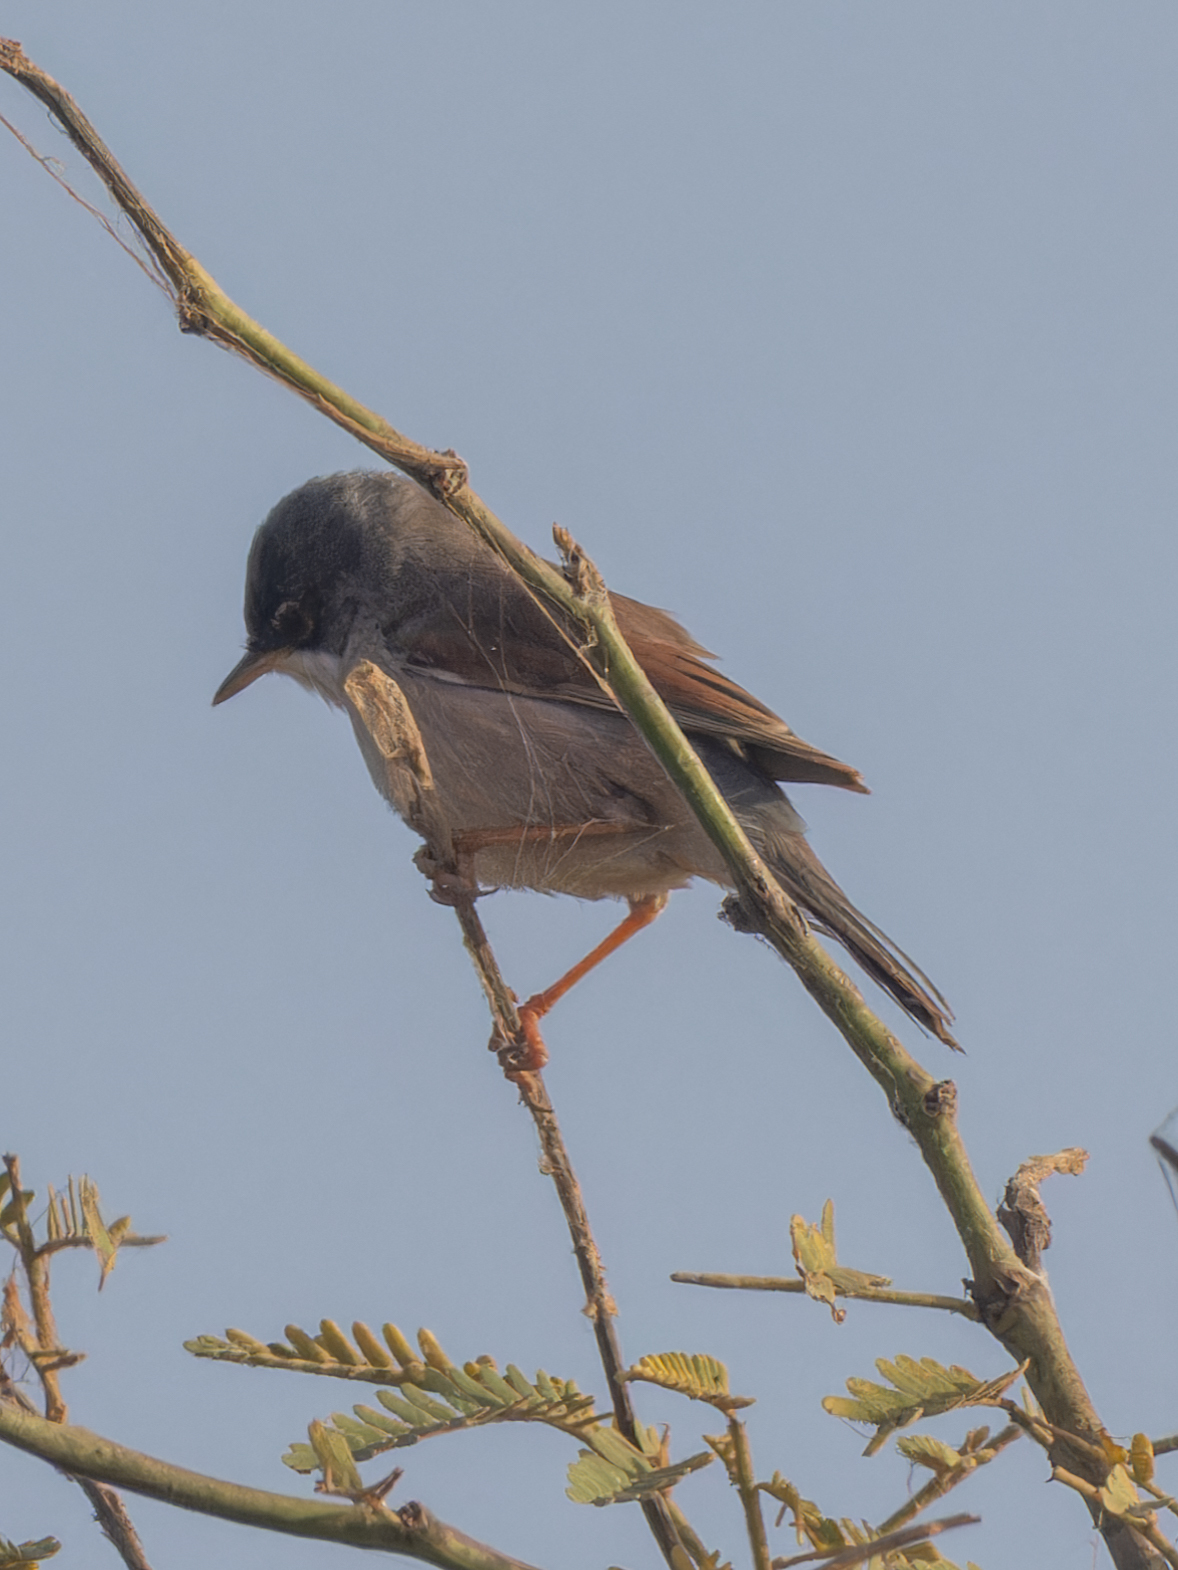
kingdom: Animalia
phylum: Chordata
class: Aves
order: Passeriformes
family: Sylviidae
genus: Sylvia
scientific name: Sylvia conspicillata
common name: Spectacled warbler
